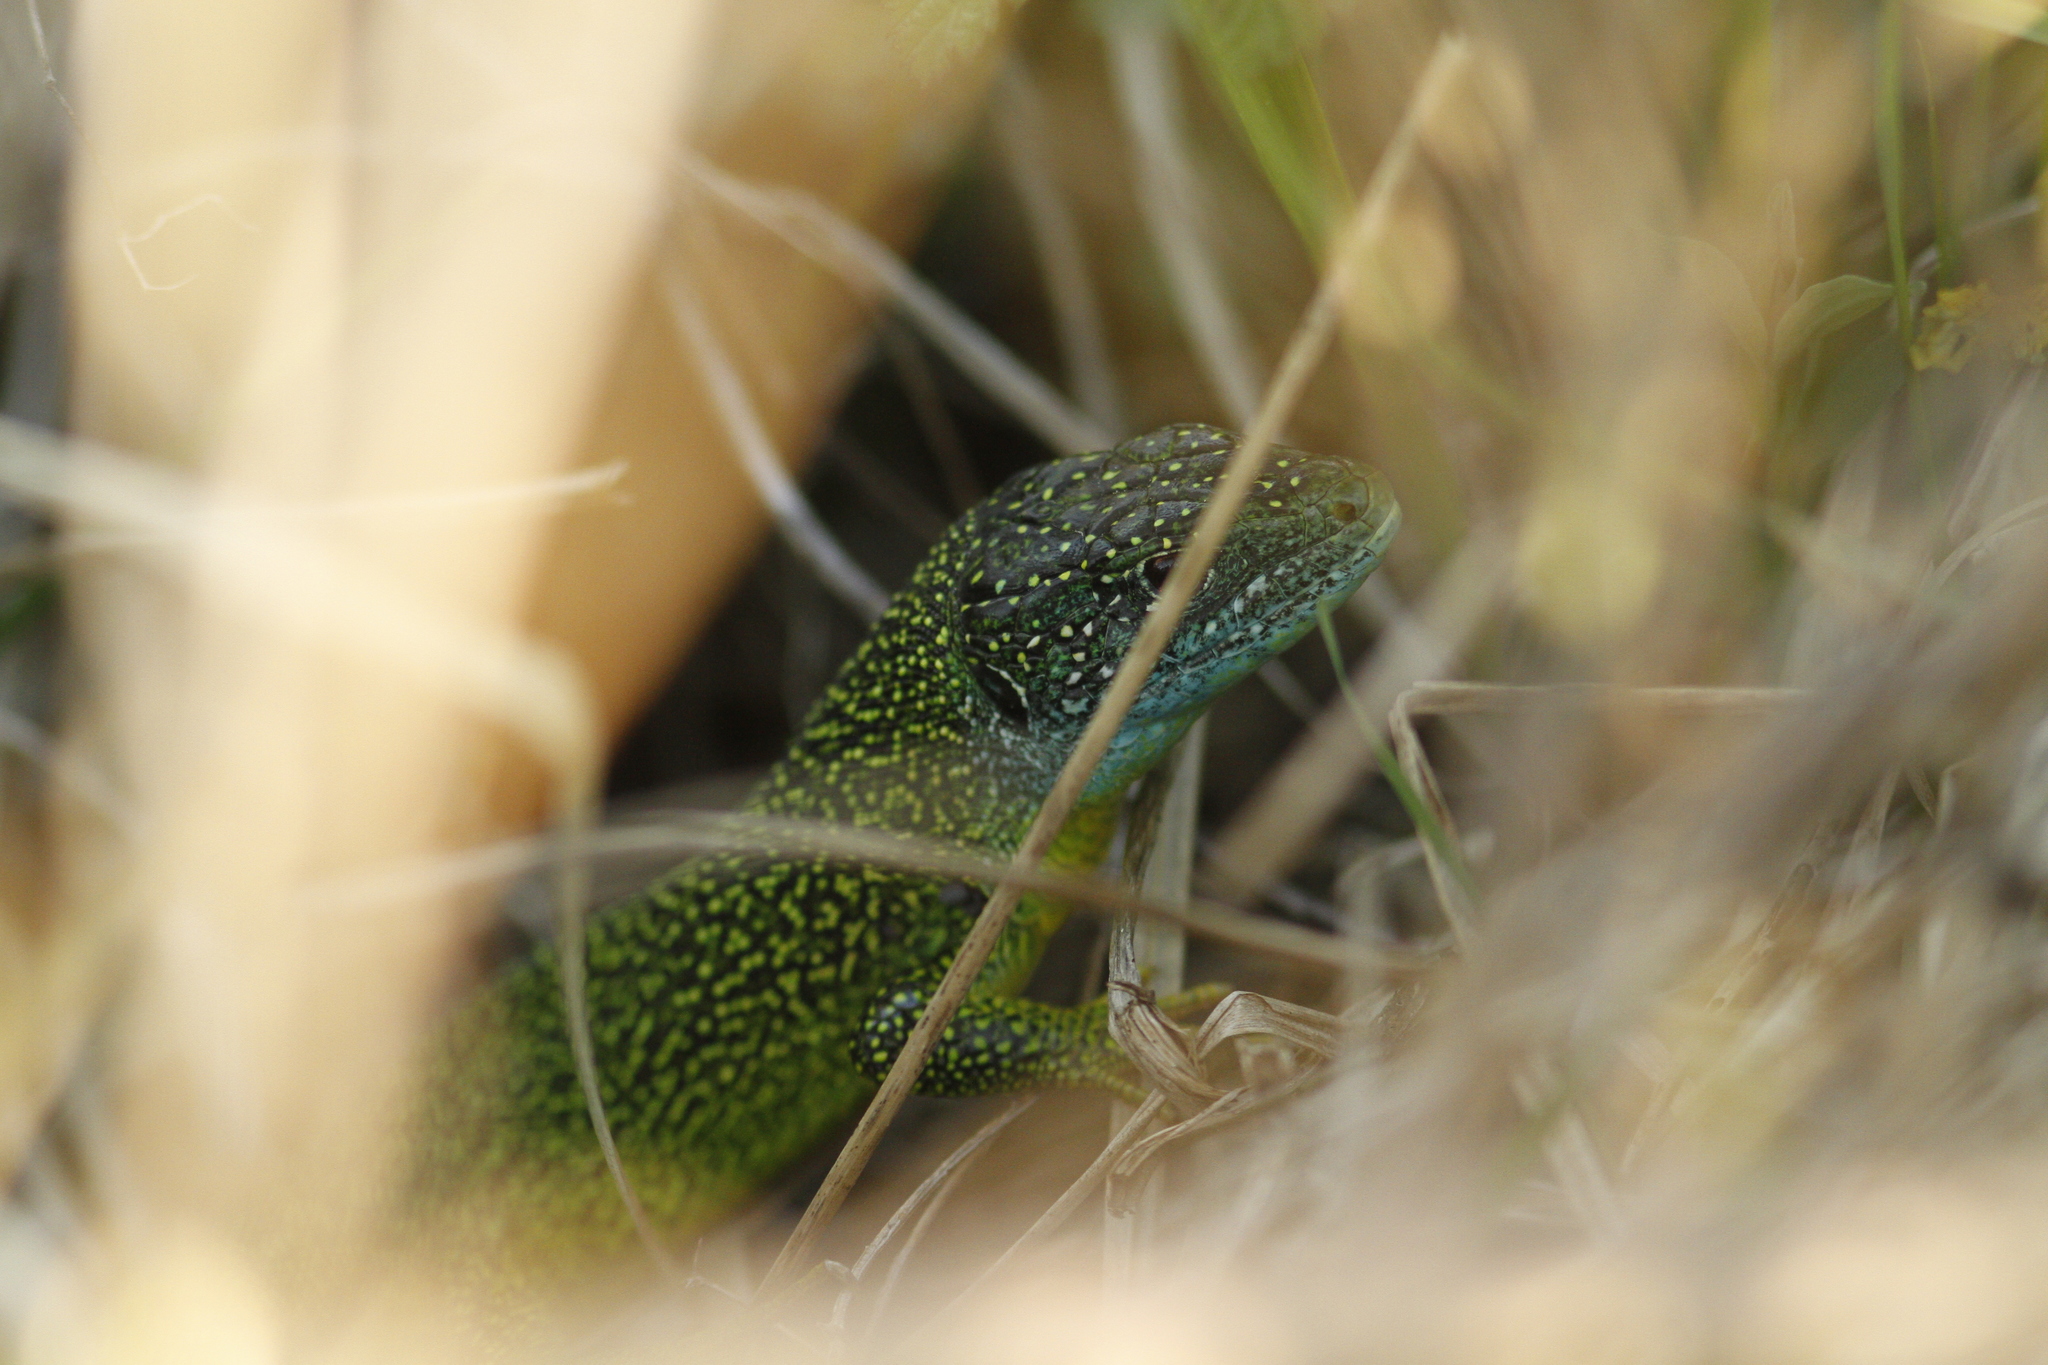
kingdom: Animalia
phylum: Chordata
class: Squamata
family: Lacertidae
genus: Lacerta
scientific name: Lacerta bilineata
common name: Western green lizard
